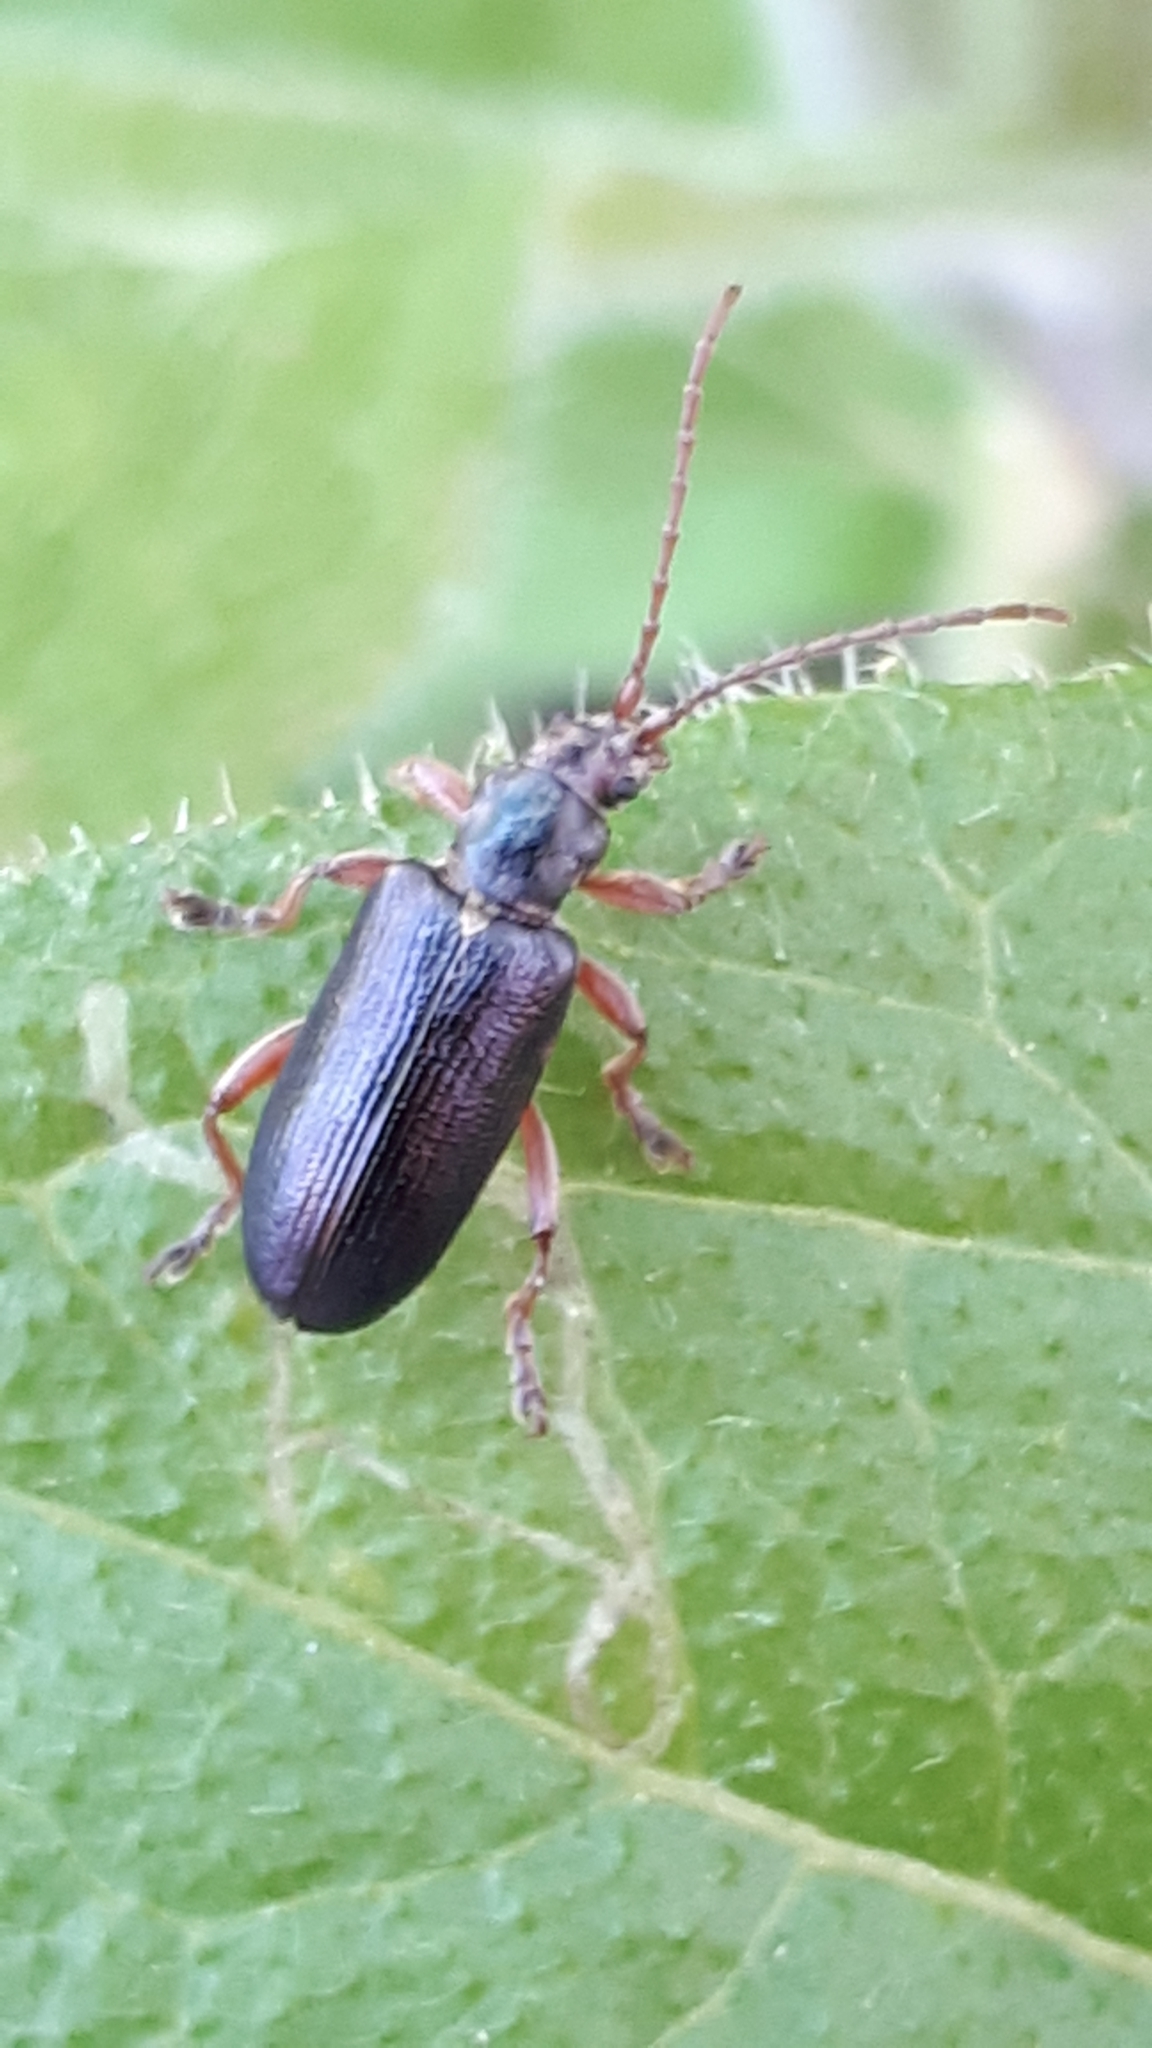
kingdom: Animalia
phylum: Arthropoda
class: Insecta
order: Coleoptera
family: Chrysomelidae
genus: Plateumaris
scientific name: Plateumaris consimilis
